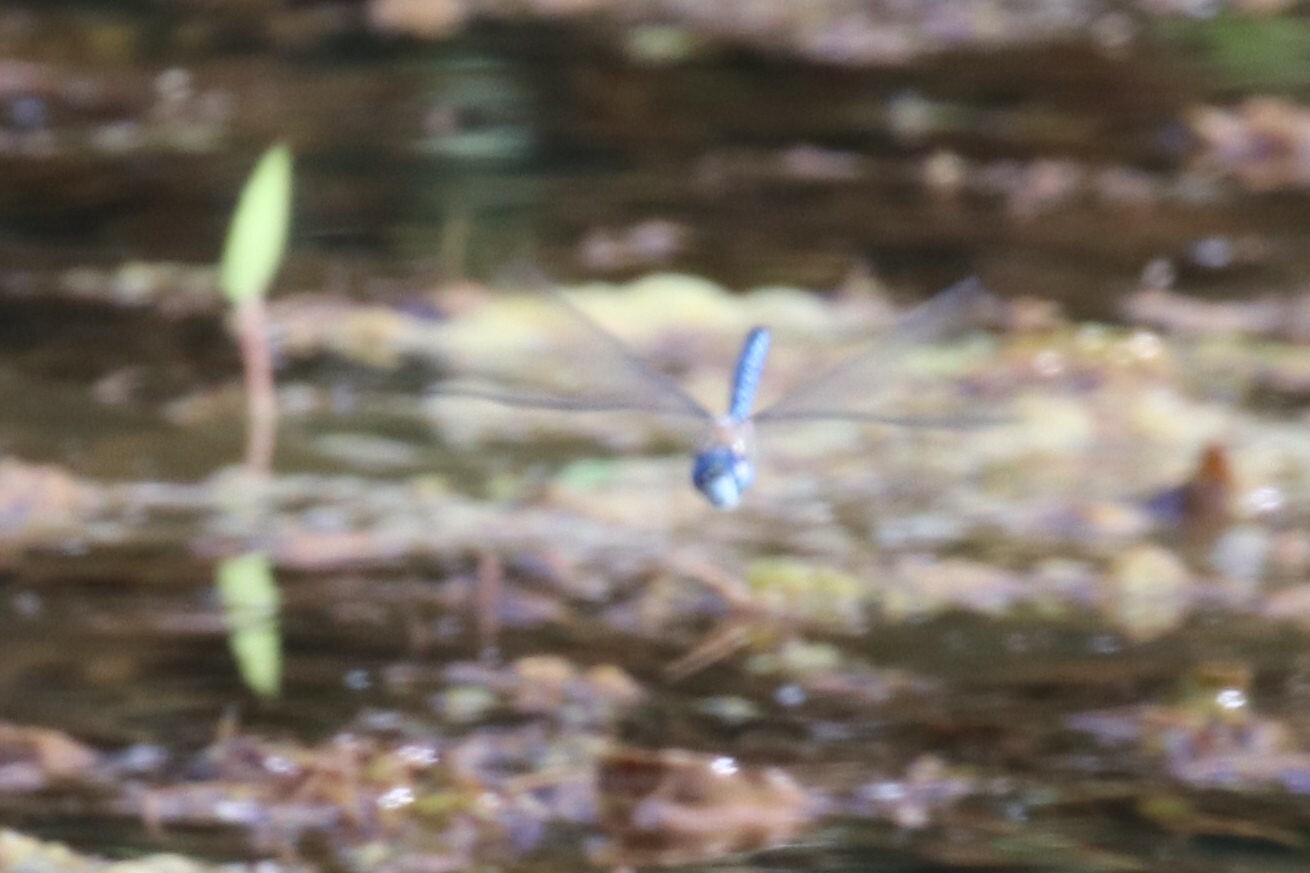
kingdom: Animalia
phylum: Arthropoda
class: Insecta
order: Odonata
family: Aeshnidae
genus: Aeshna
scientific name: Aeshna soneharai
